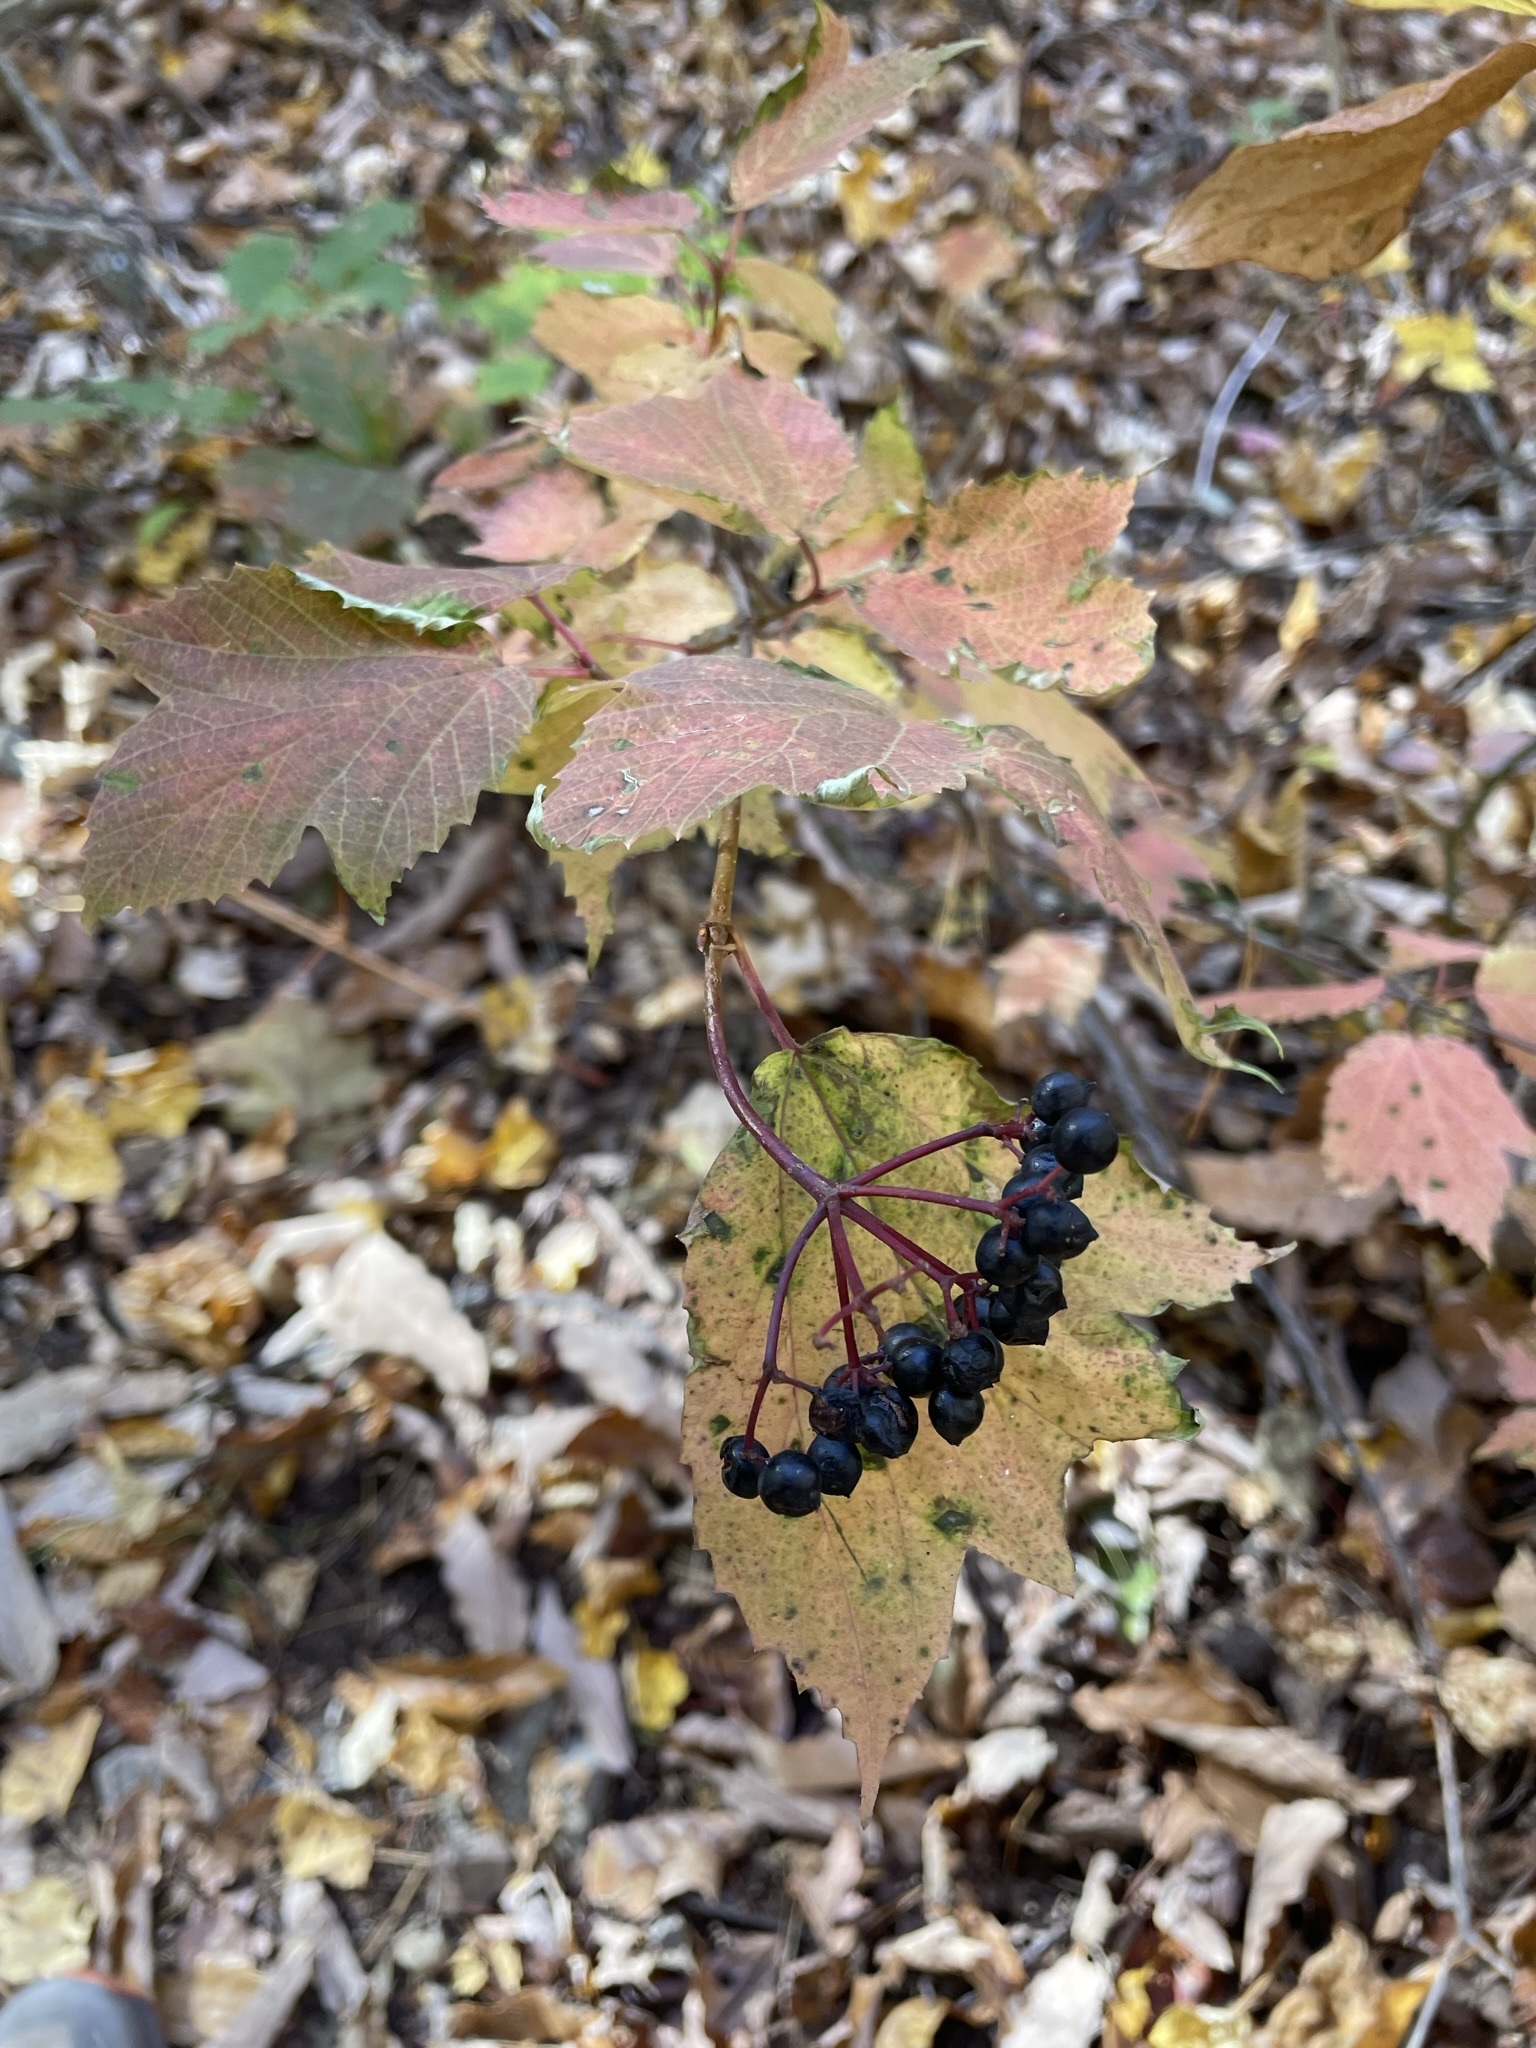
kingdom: Plantae
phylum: Tracheophyta
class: Magnoliopsida
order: Dipsacales
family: Viburnaceae
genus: Viburnum
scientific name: Viburnum acerifolium
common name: Dockmackie
